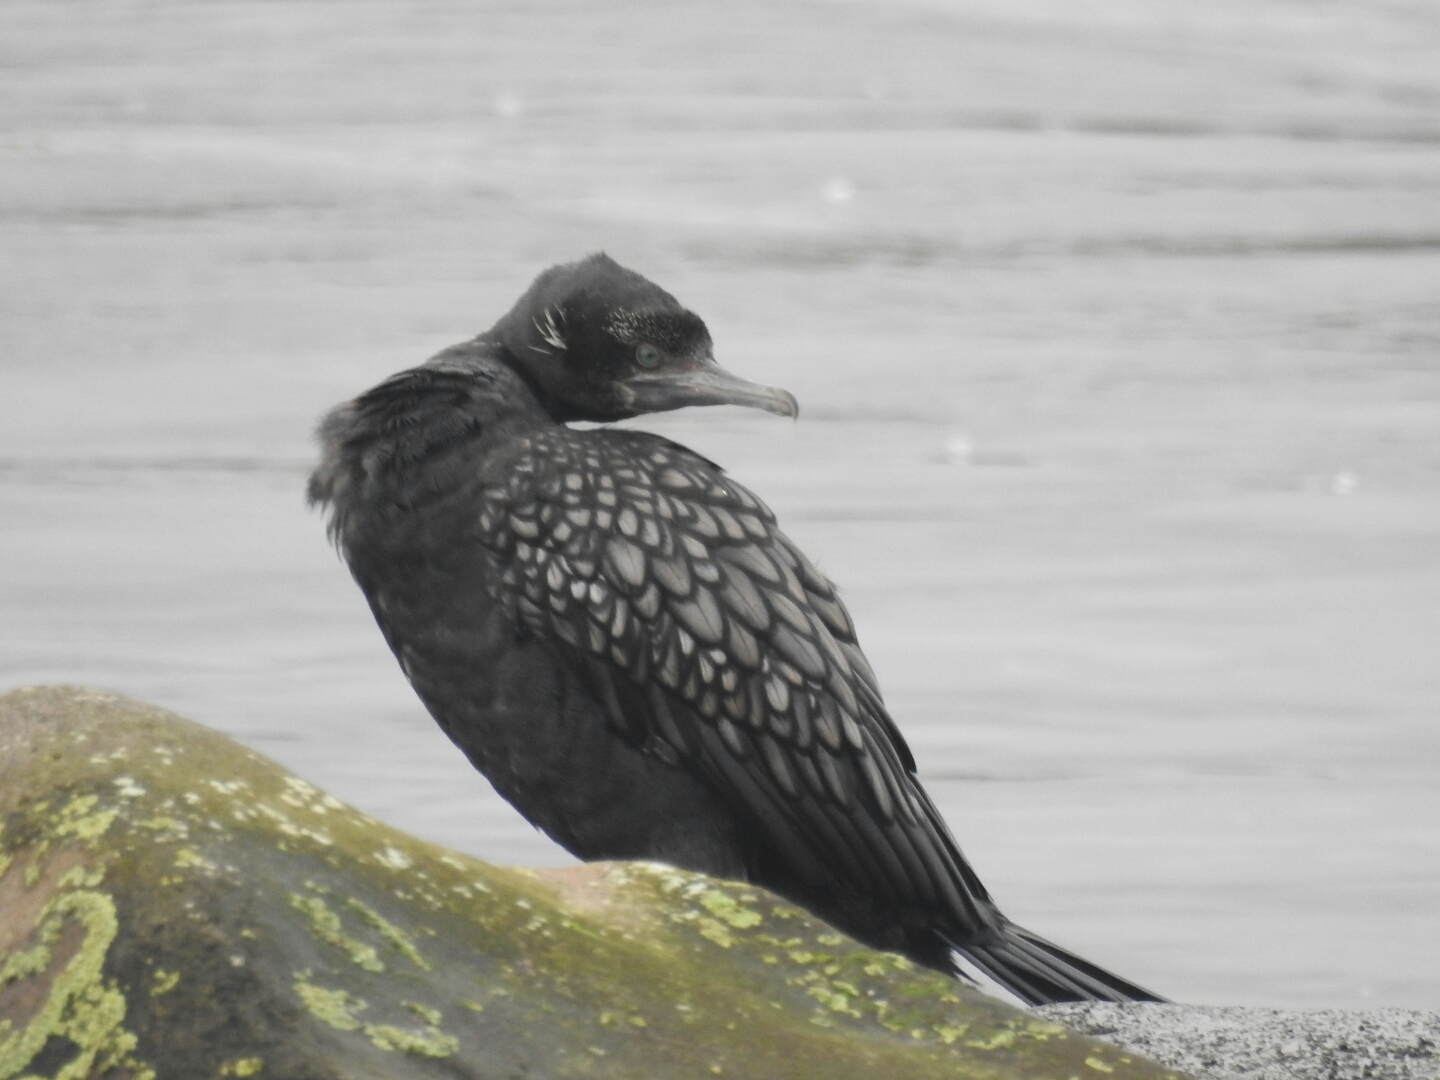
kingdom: Animalia
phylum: Chordata
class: Aves
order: Suliformes
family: Phalacrocoracidae
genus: Phalacrocorax
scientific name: Phalacrocorax sulcirostris
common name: Little black cormorant
